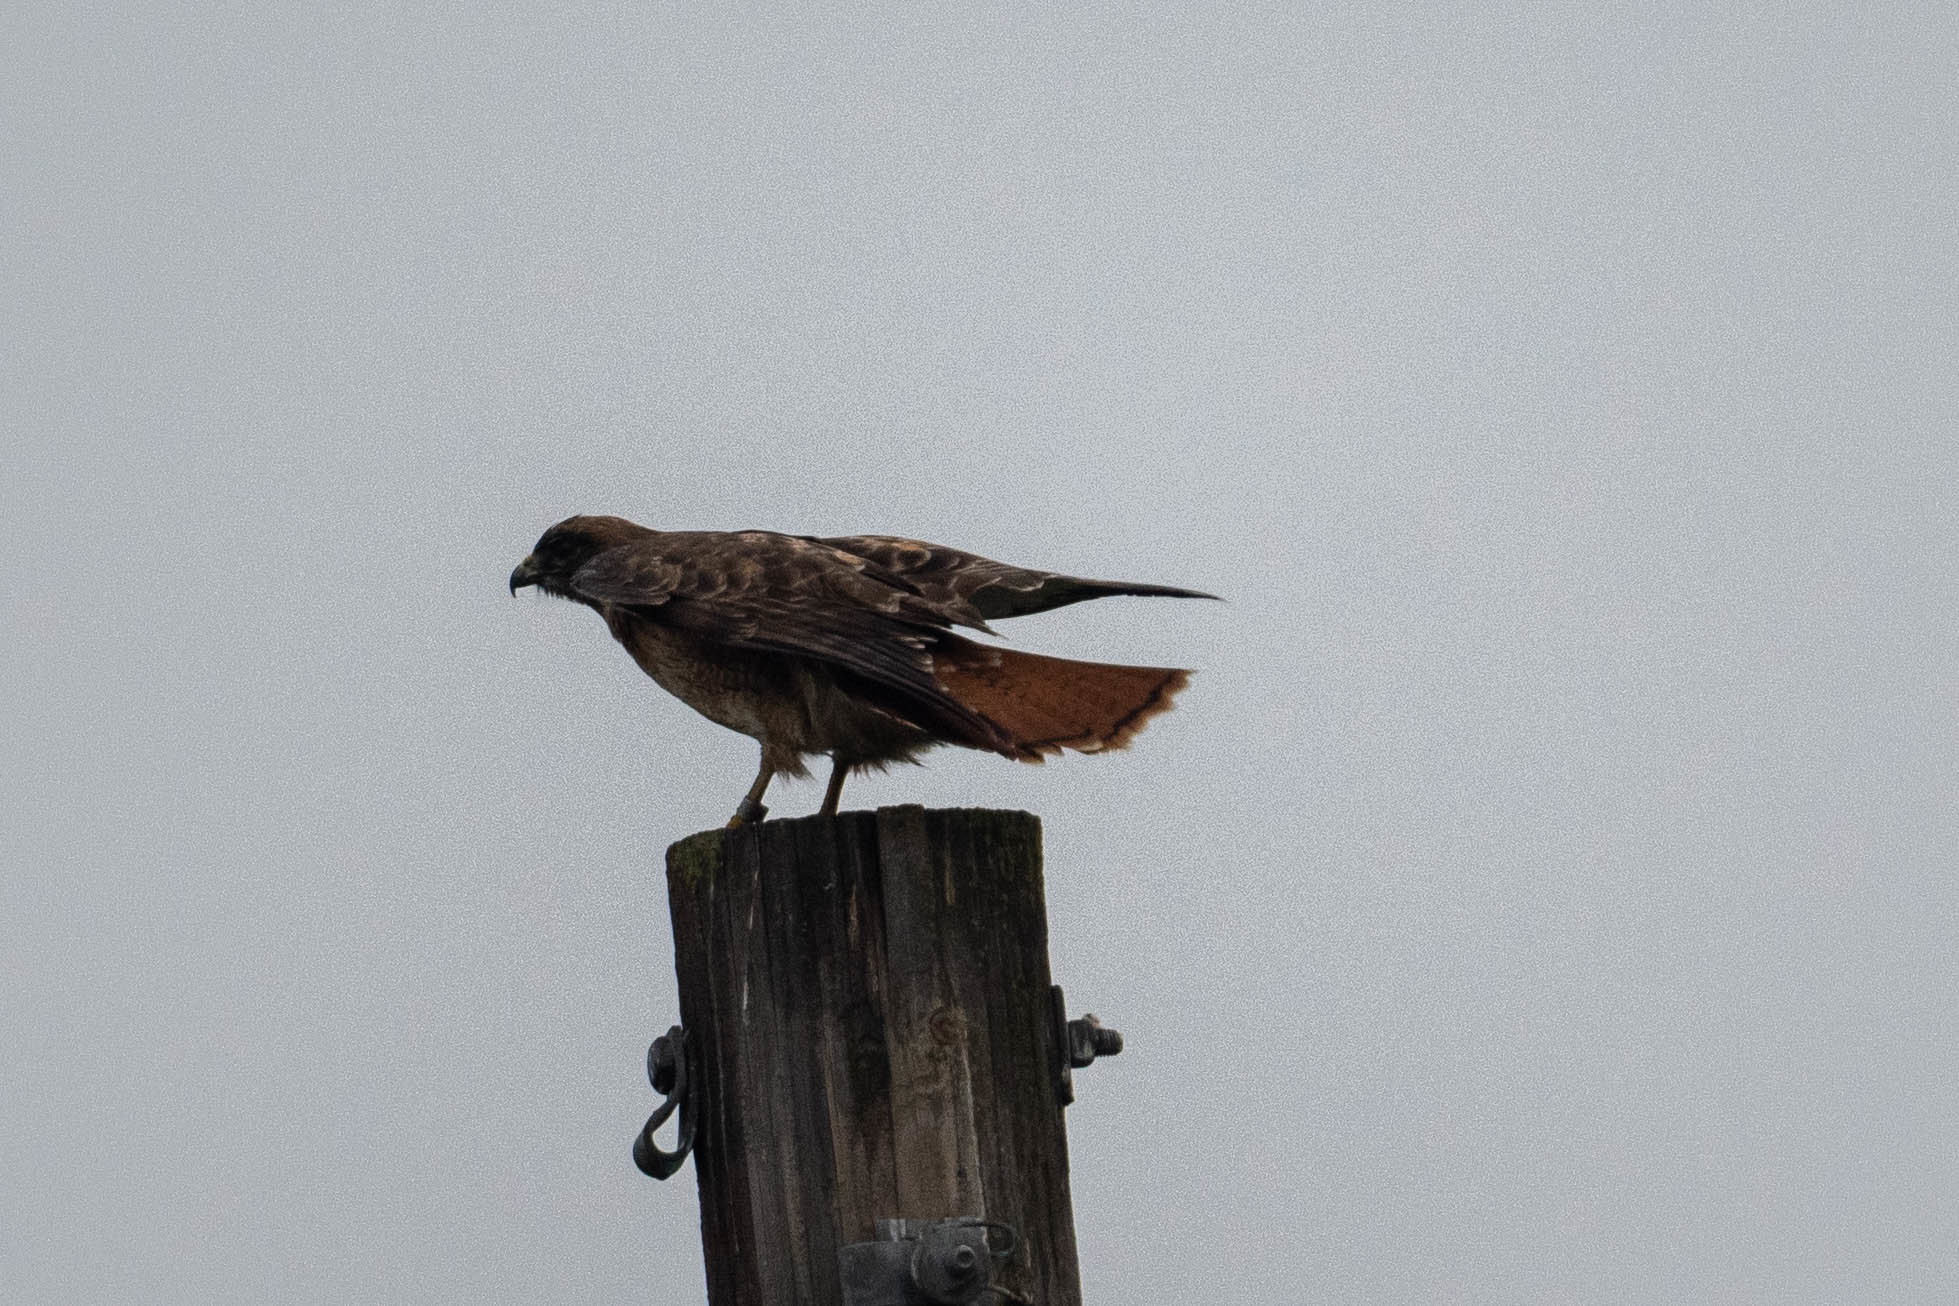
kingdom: Animalia
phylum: Chordata
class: Aves
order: Accipitriformes
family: Accipitridae
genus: Buteo
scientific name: Buteo jamaicensis
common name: Red-tailed hawk
